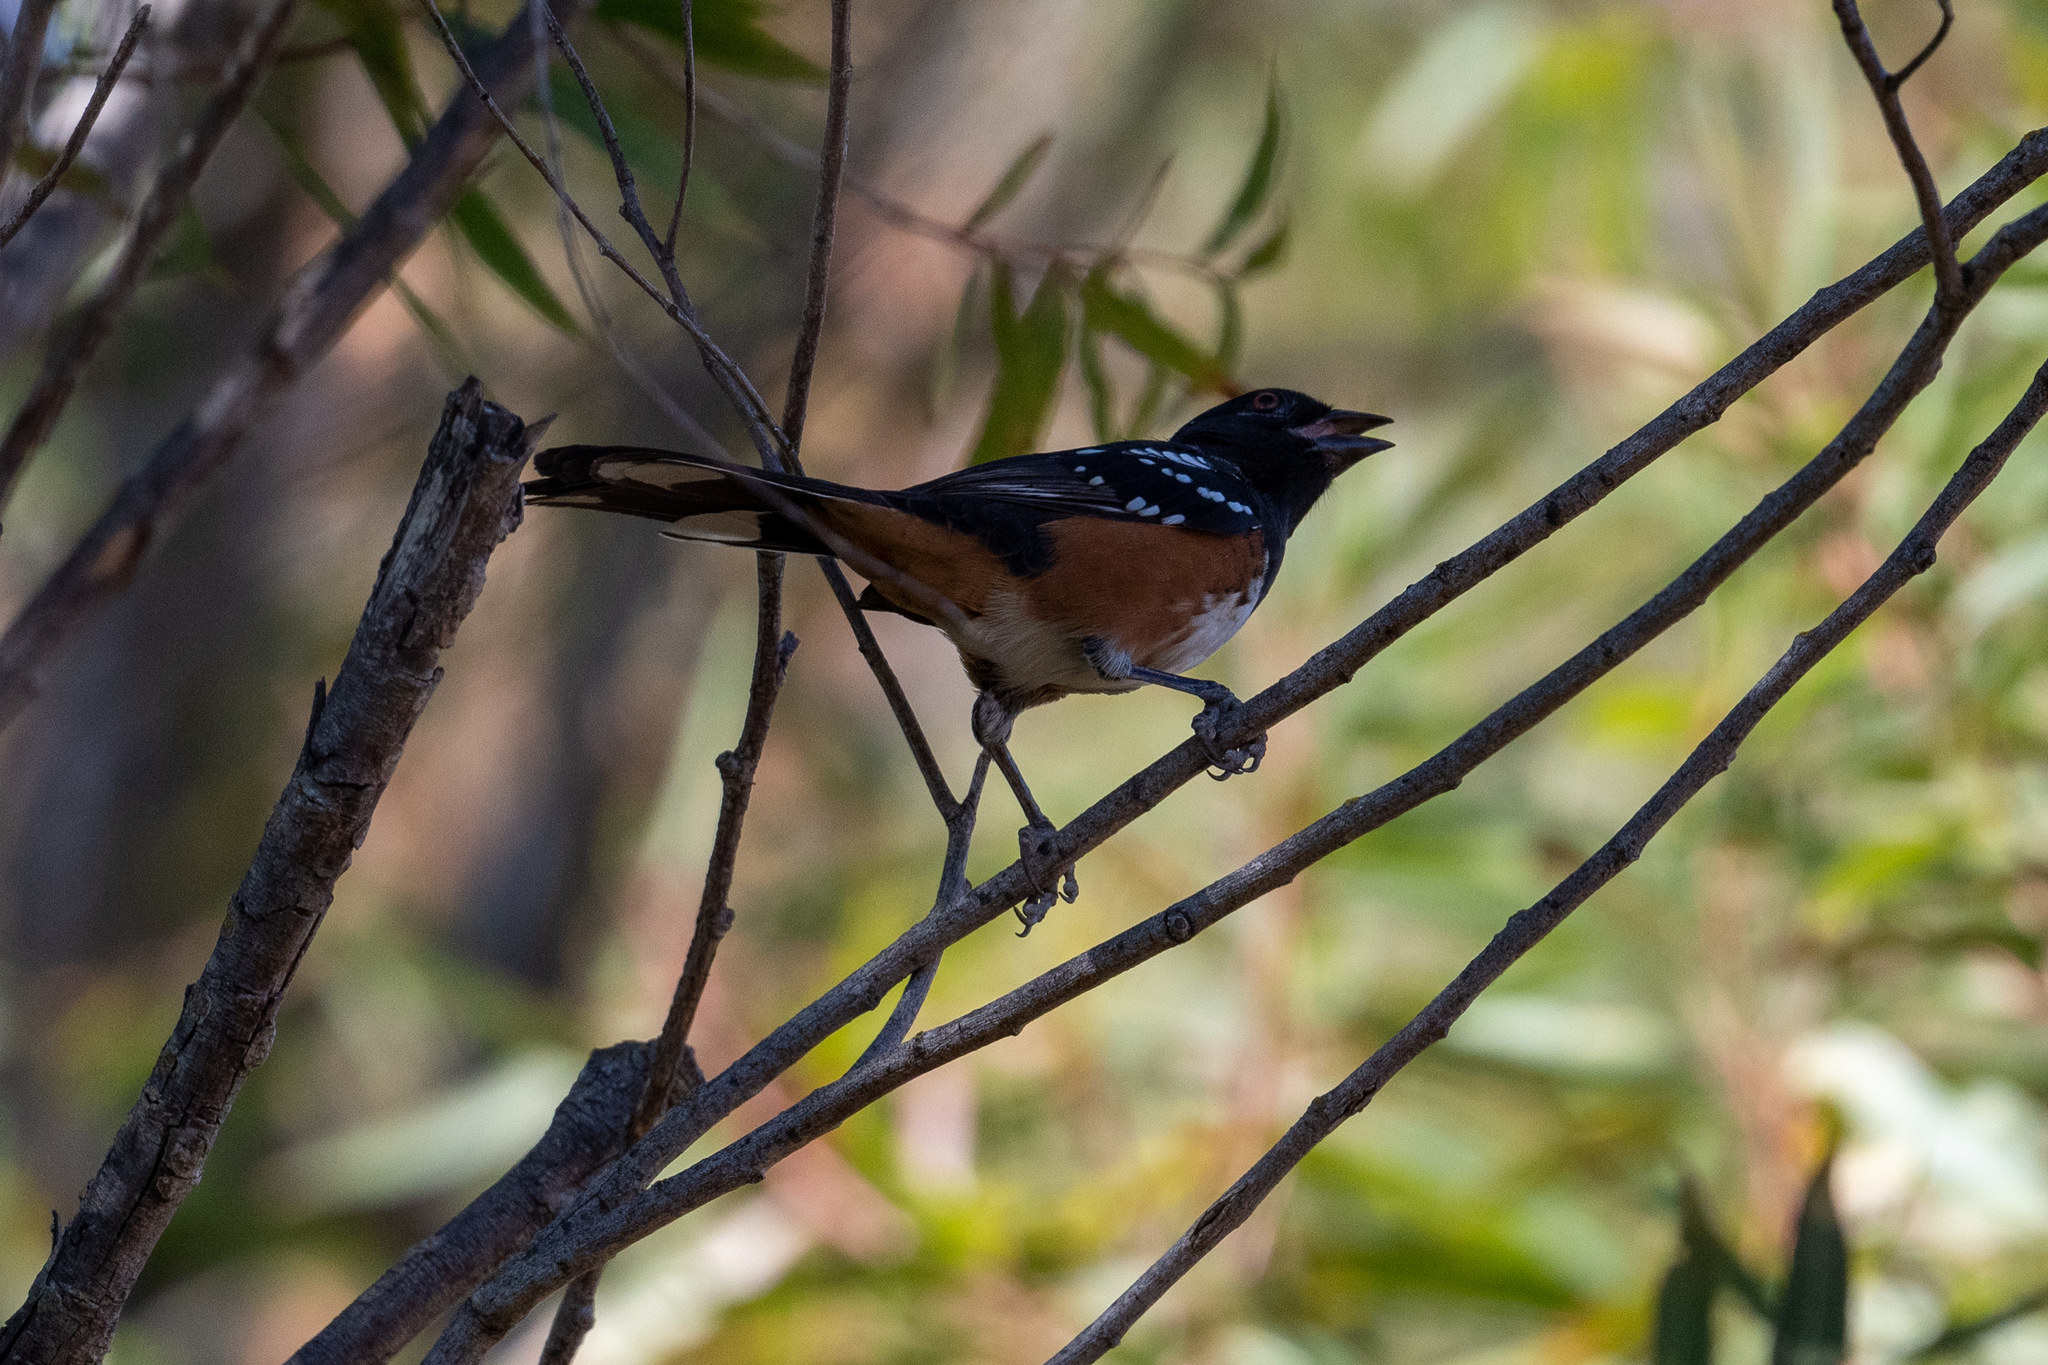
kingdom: Animalia
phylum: Chordata
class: Aves
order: Passeriformes
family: Passerellidae
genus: Pipilo
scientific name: Pipilo maculatus
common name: Spotted towhee
